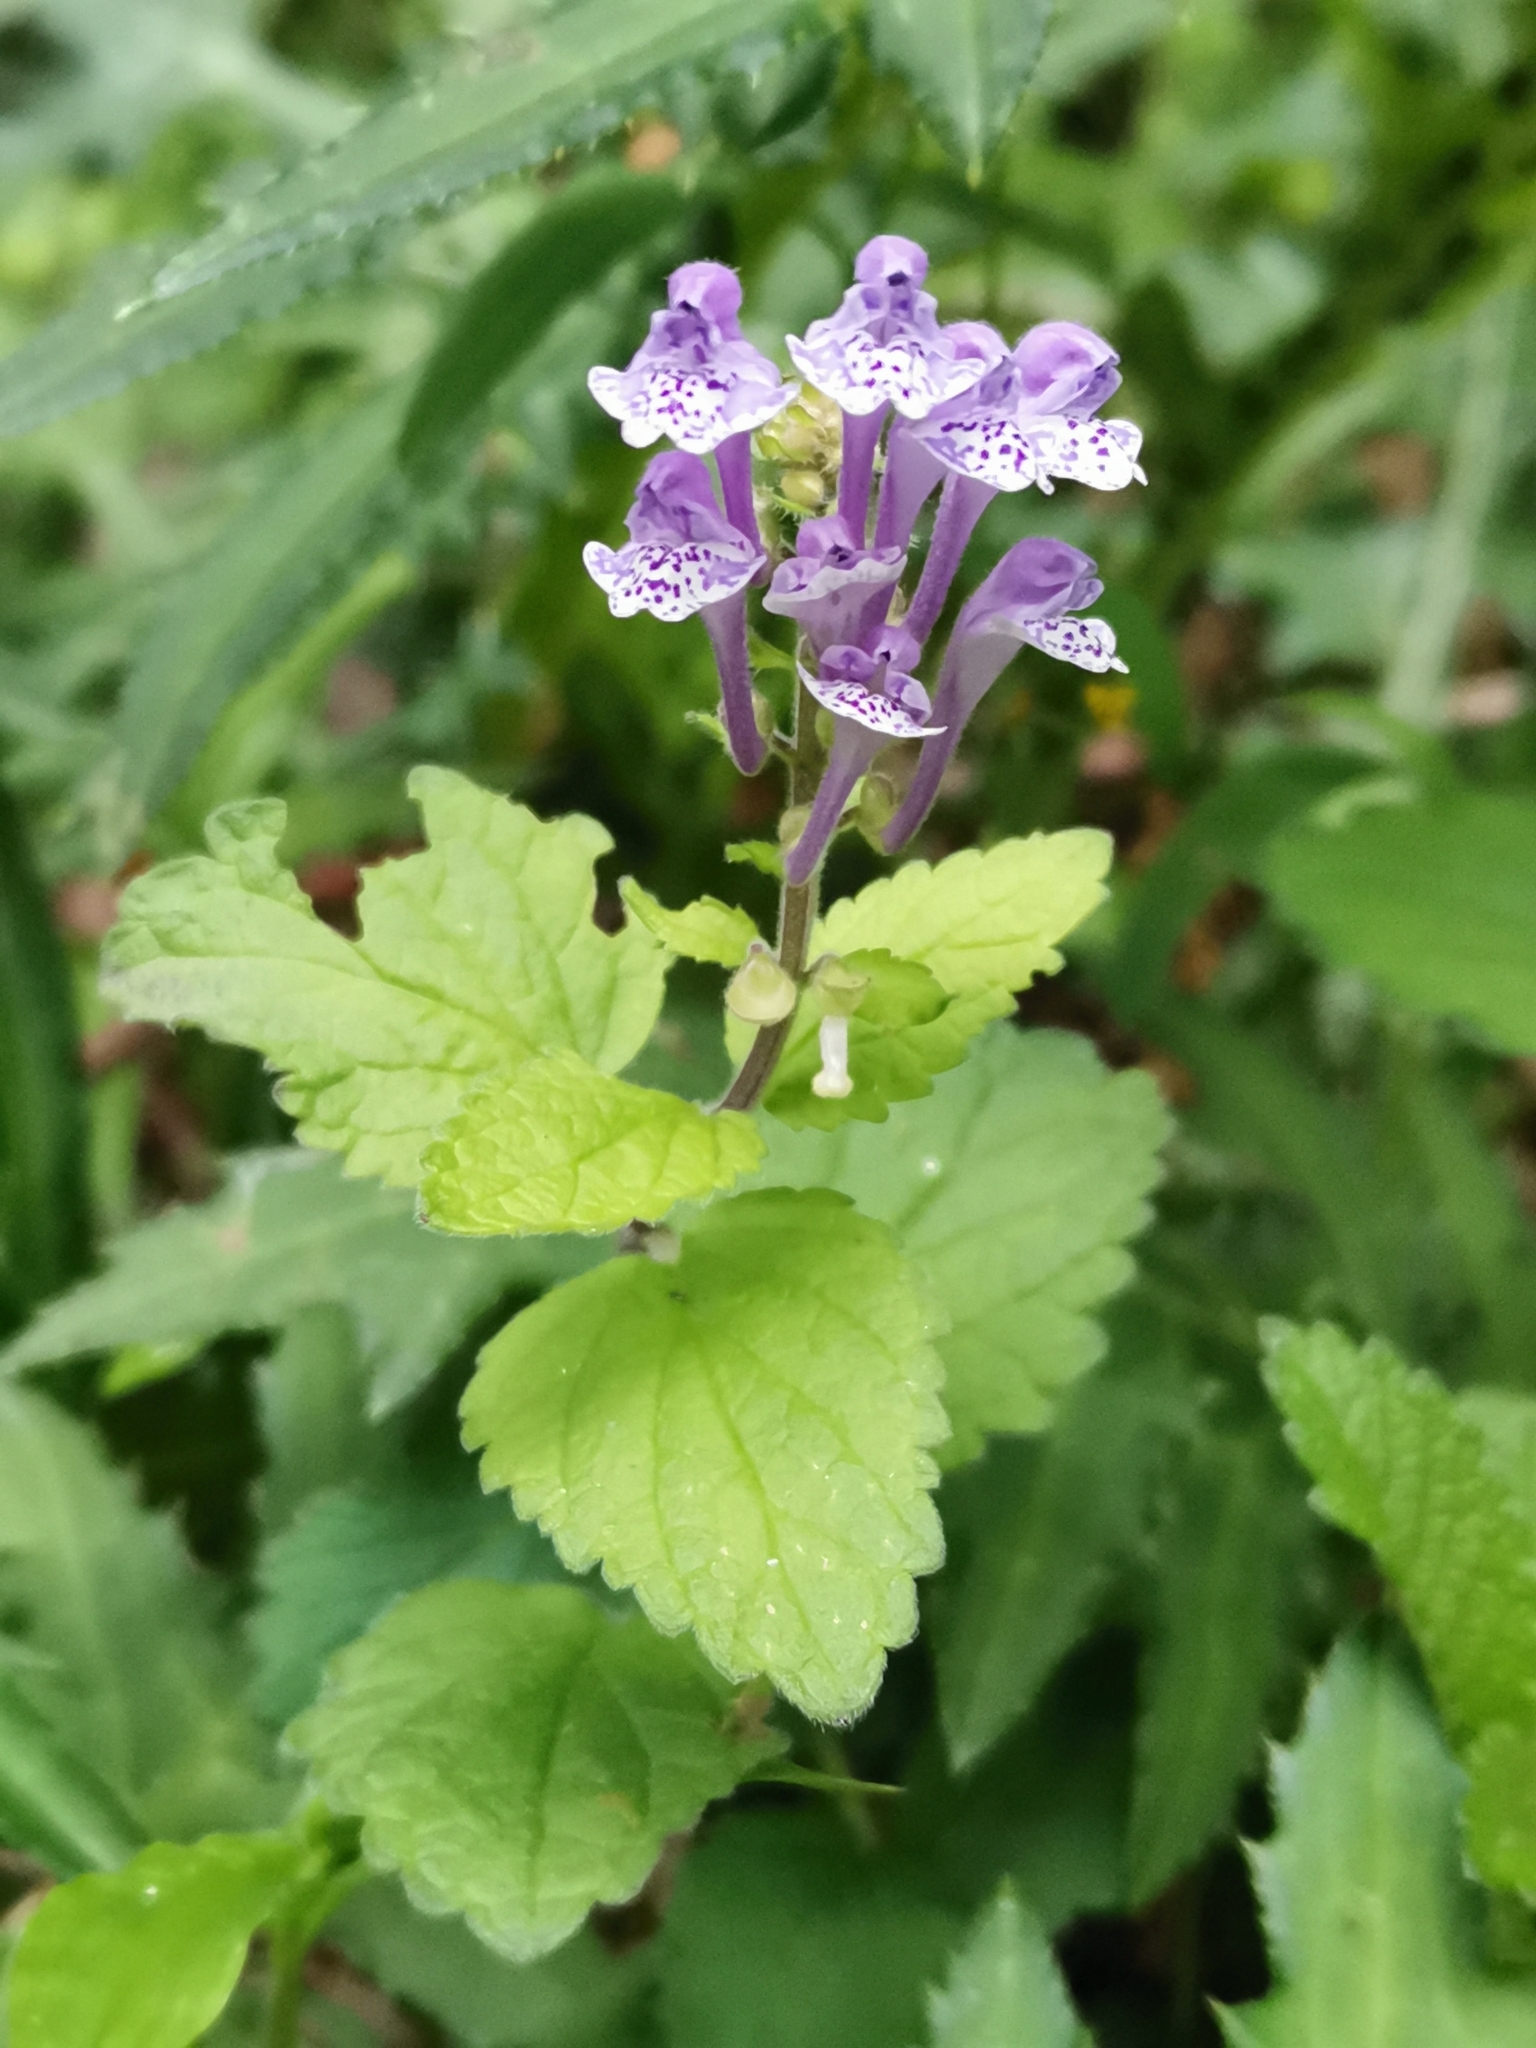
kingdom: Plantae
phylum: Tracheophyta
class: Magnoliopsida
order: Lamiales
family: Lamiaceae
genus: Scutellaria
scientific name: Scutellaria indica
